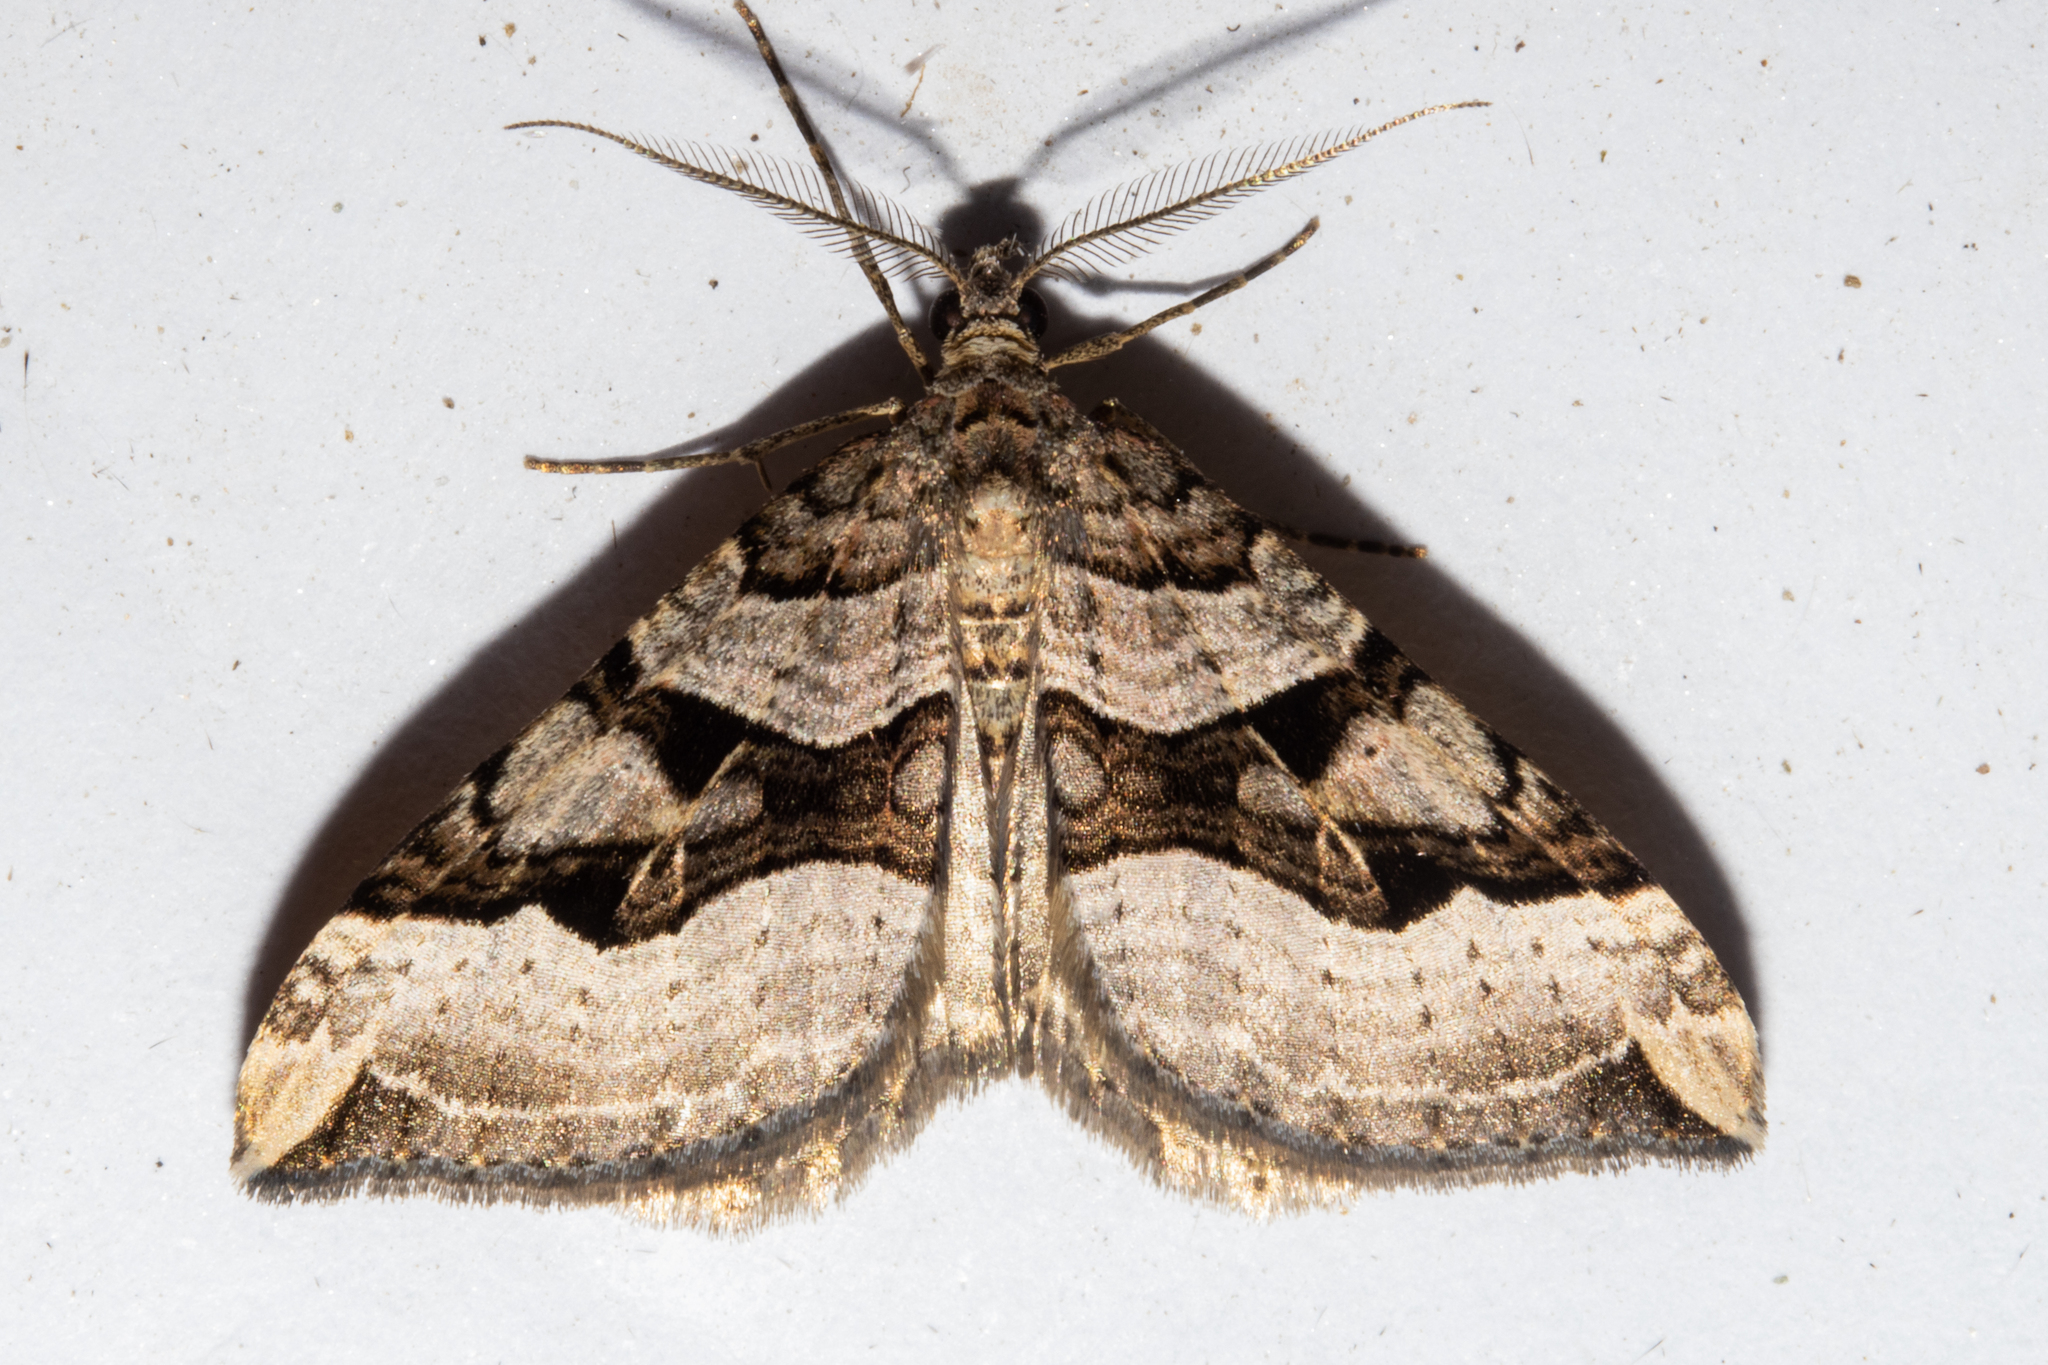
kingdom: Animalia
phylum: Arthropoda
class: Insecta
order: Lepidoptera
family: Geometridae
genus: Xanthorhoe
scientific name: Xanthorhoe semifissata
